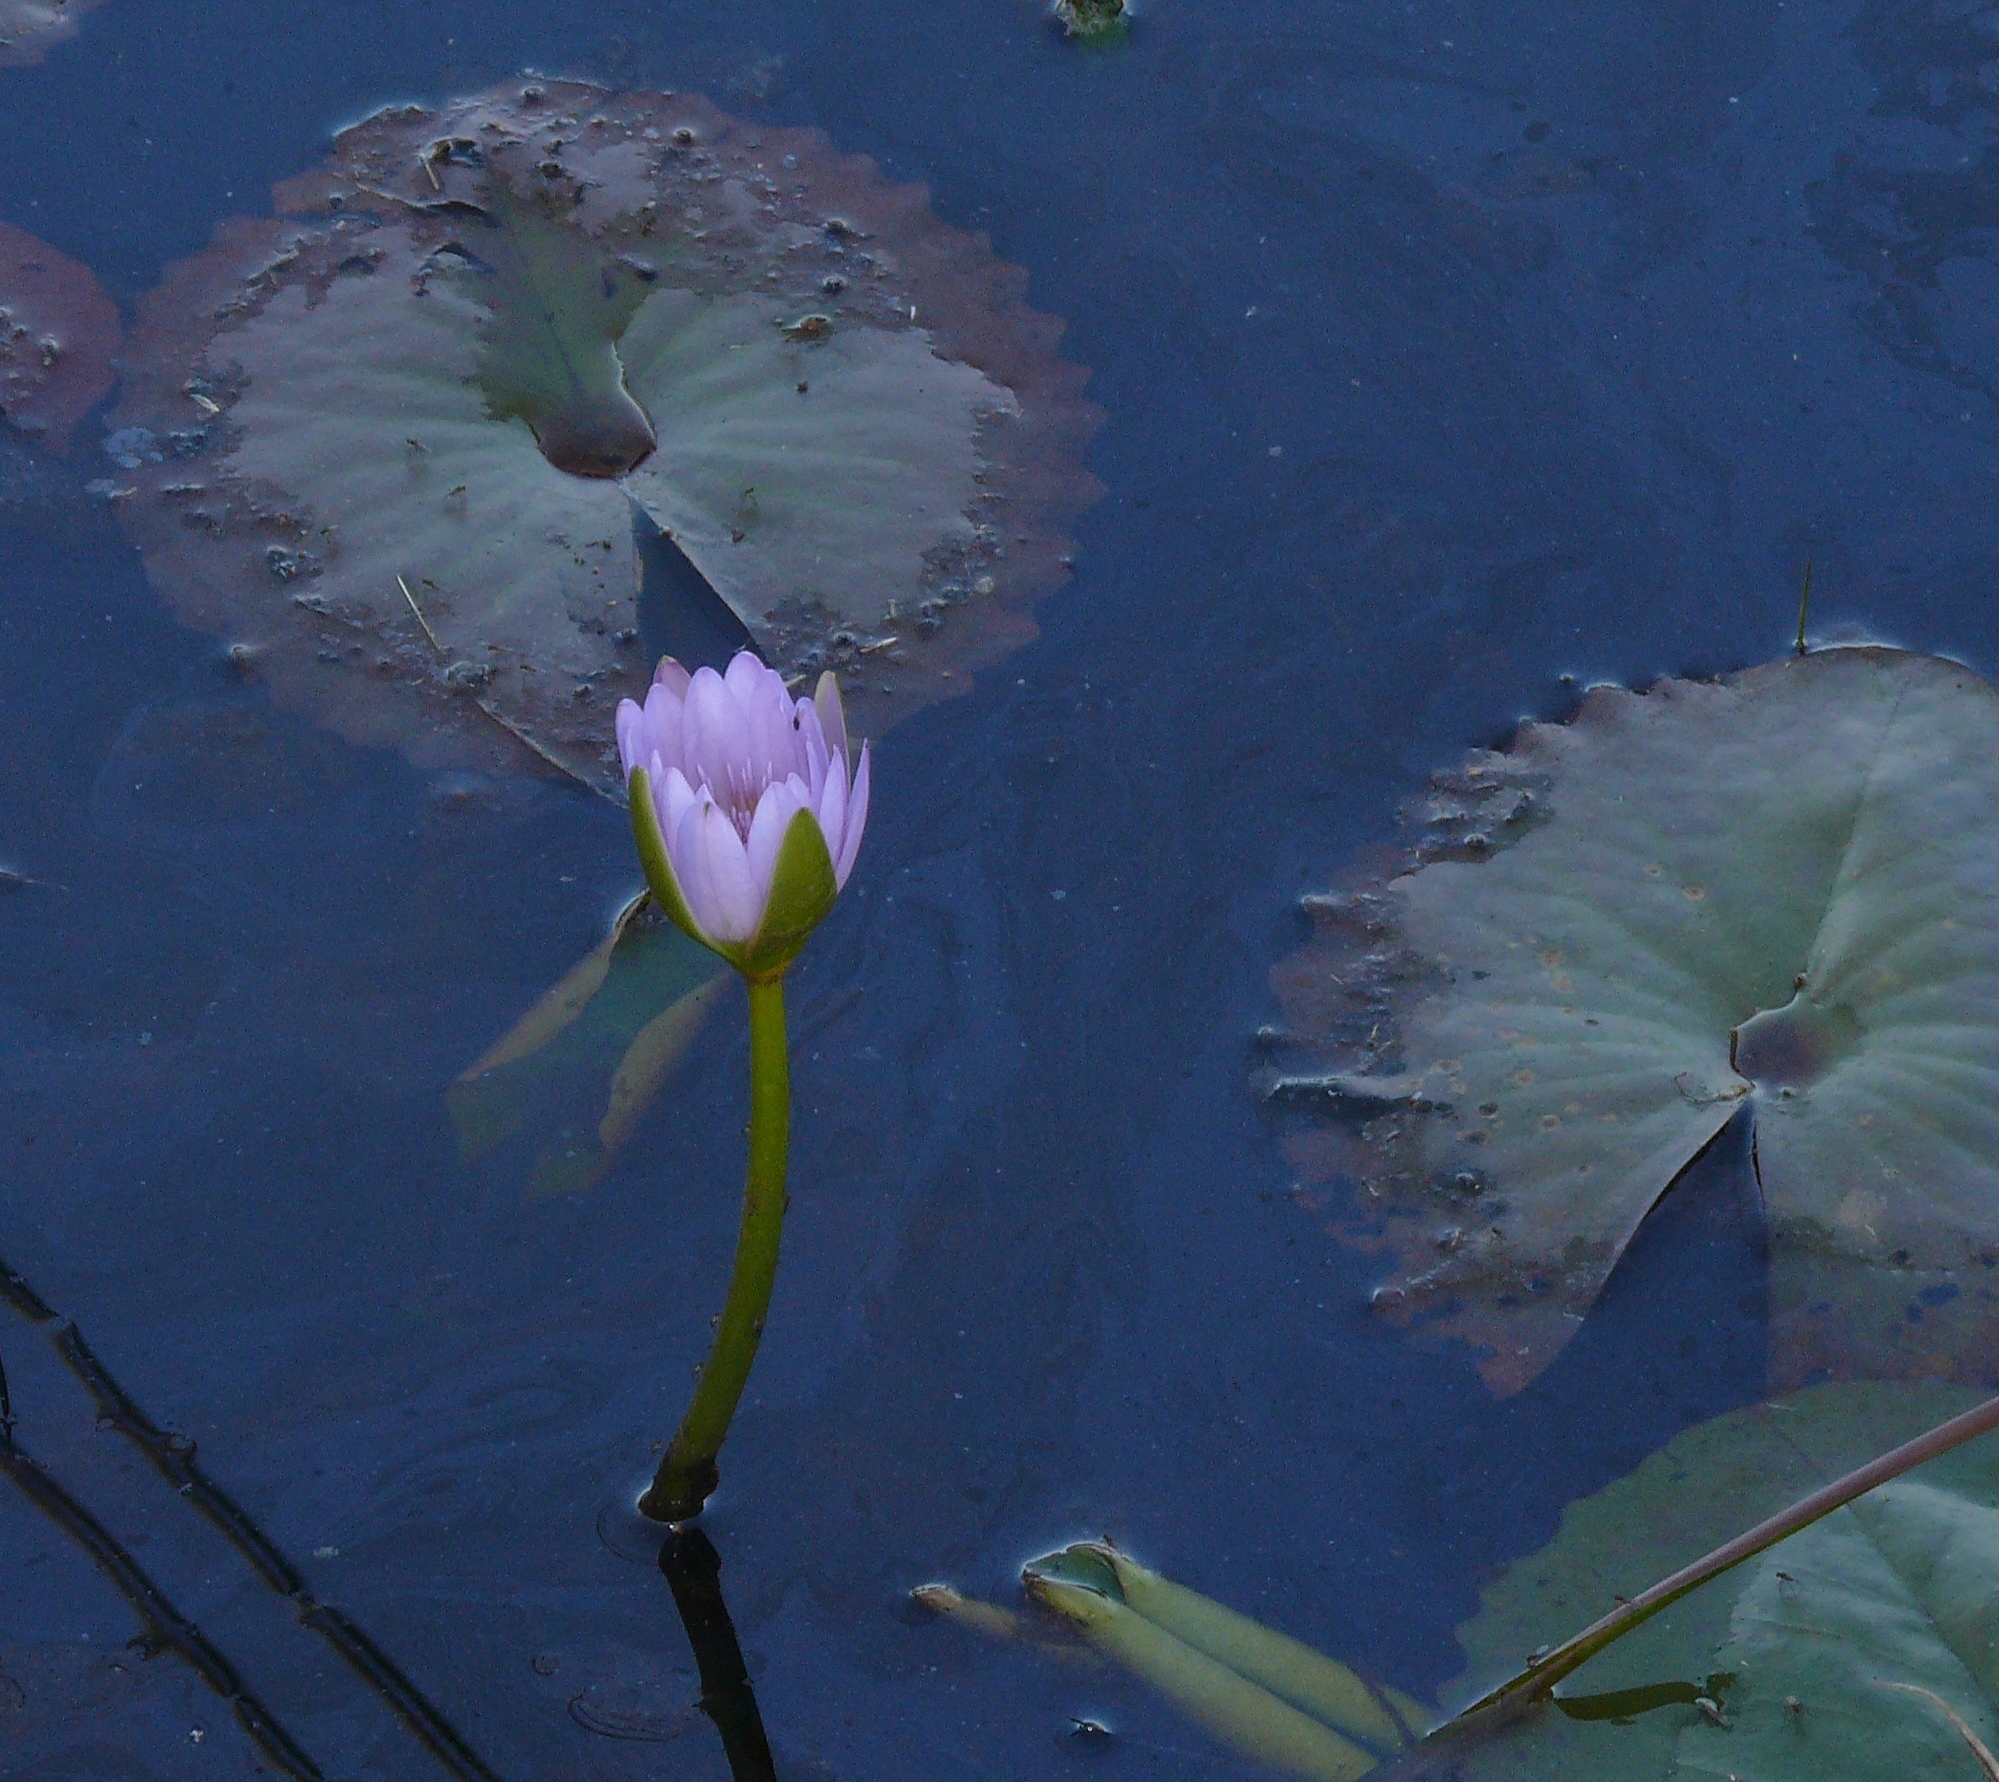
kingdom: Plantae
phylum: Tracheophyta
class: Magnoliopsida
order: Nymphaeales
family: Nymphaeaceae
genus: Nymphaea
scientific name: Nymphaea nouchali
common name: Blue lotus
